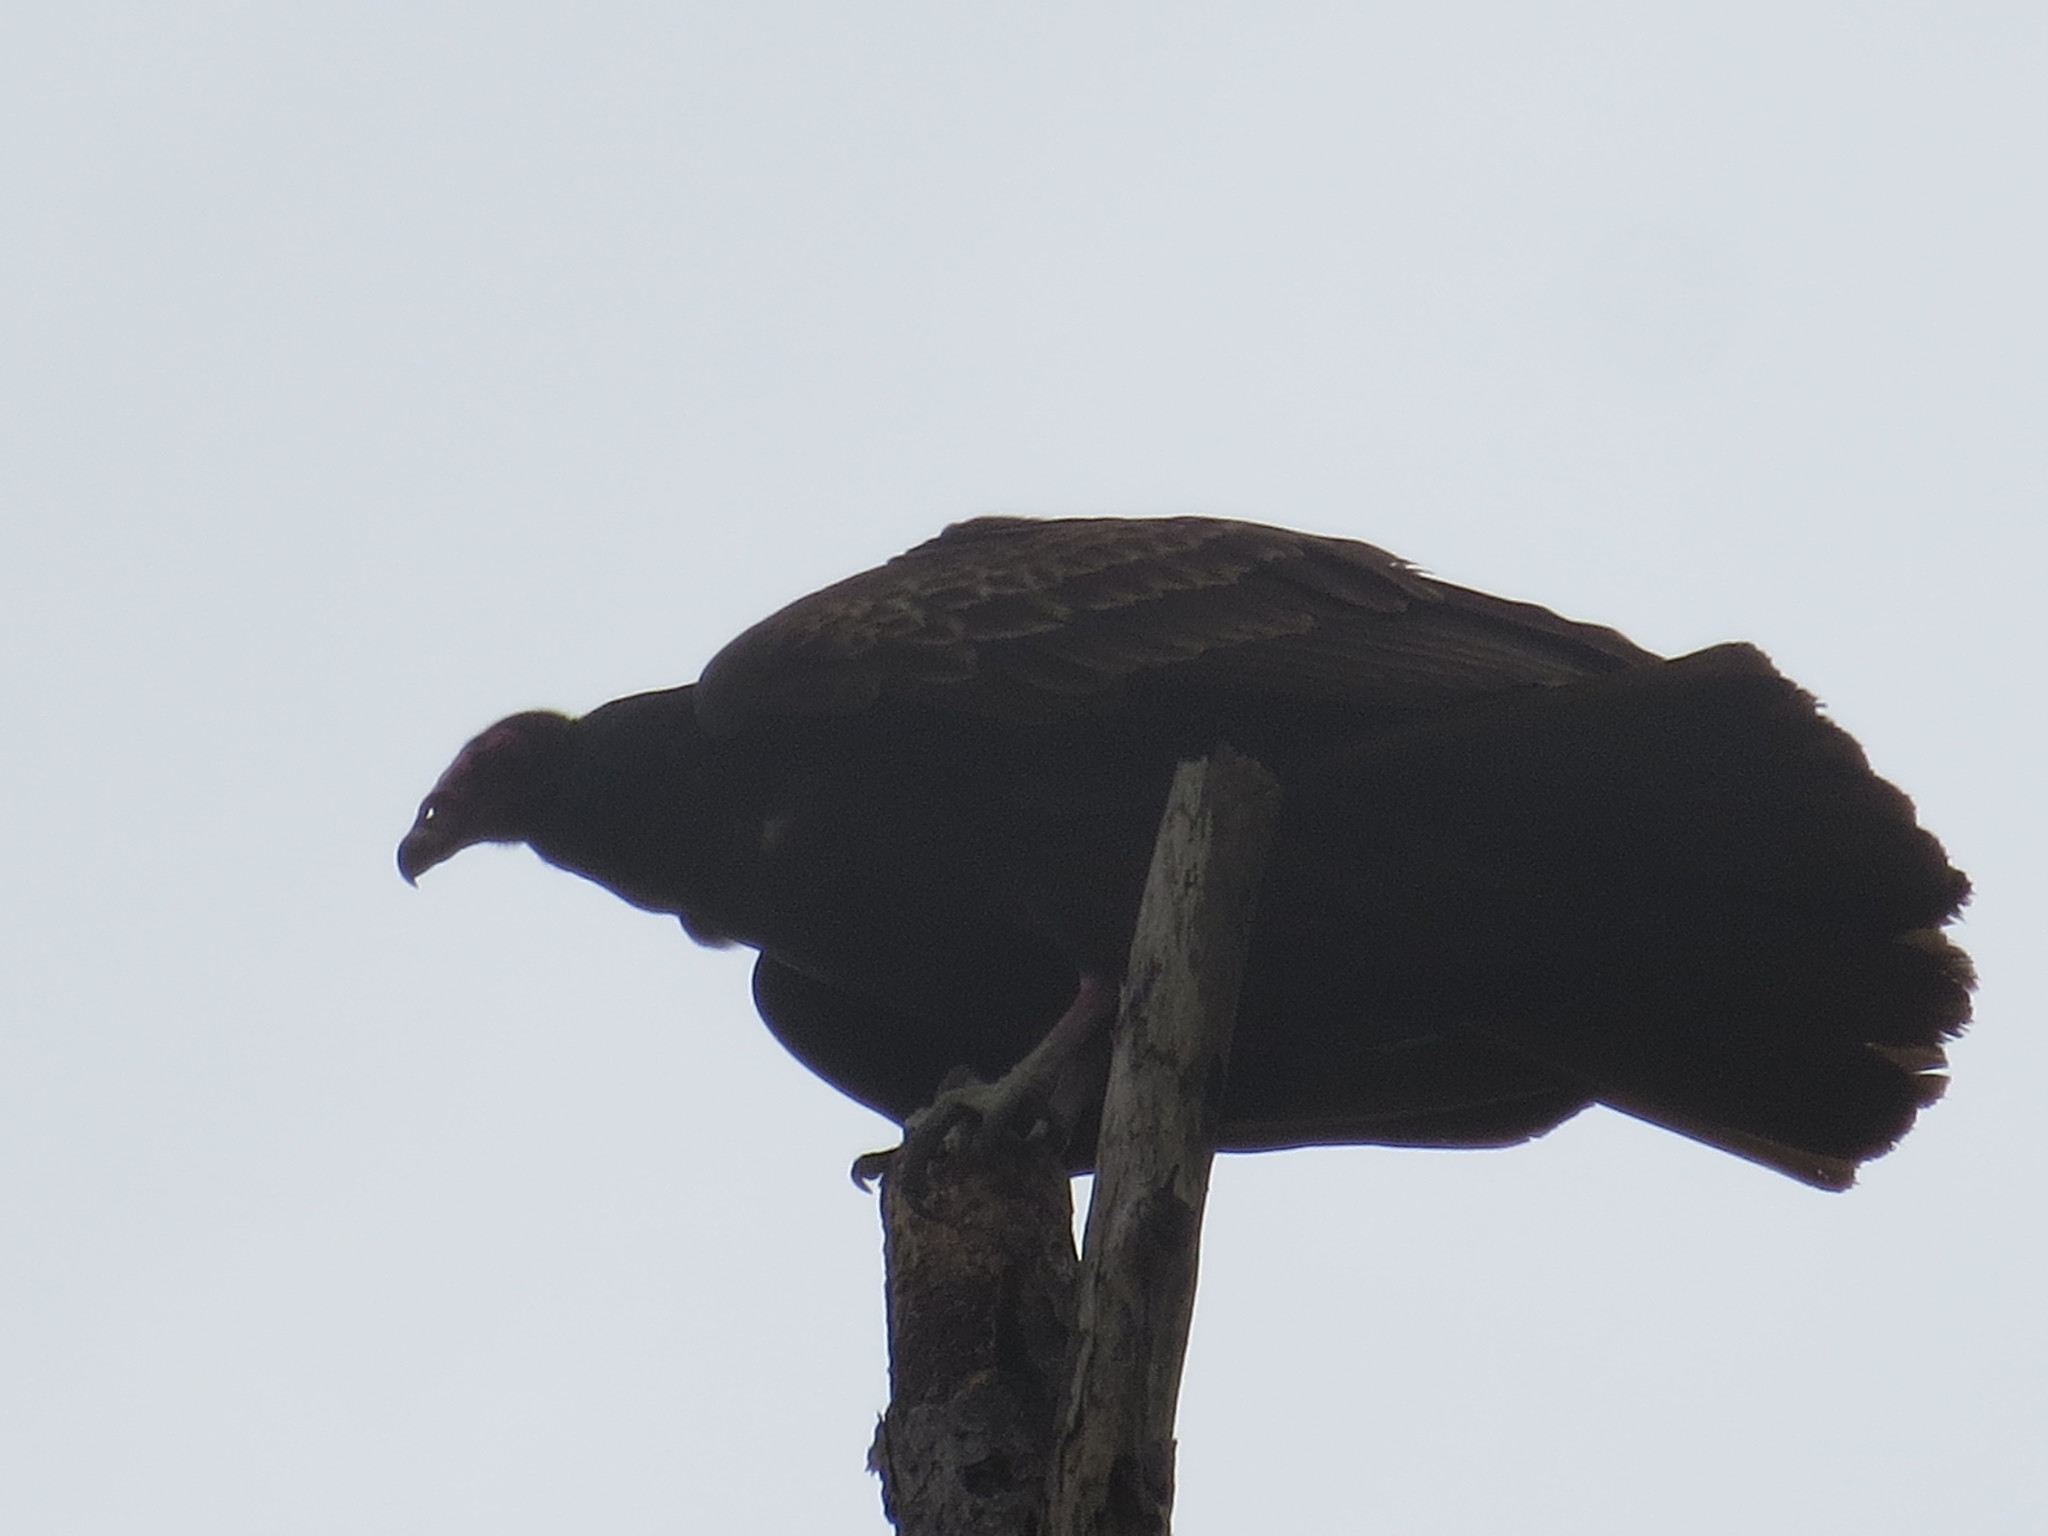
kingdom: Animalia
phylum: Chordata
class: Aves
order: Accipitriformes
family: Cathartidae
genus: Cathartes
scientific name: Cathartes aura
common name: Turkey vulture
